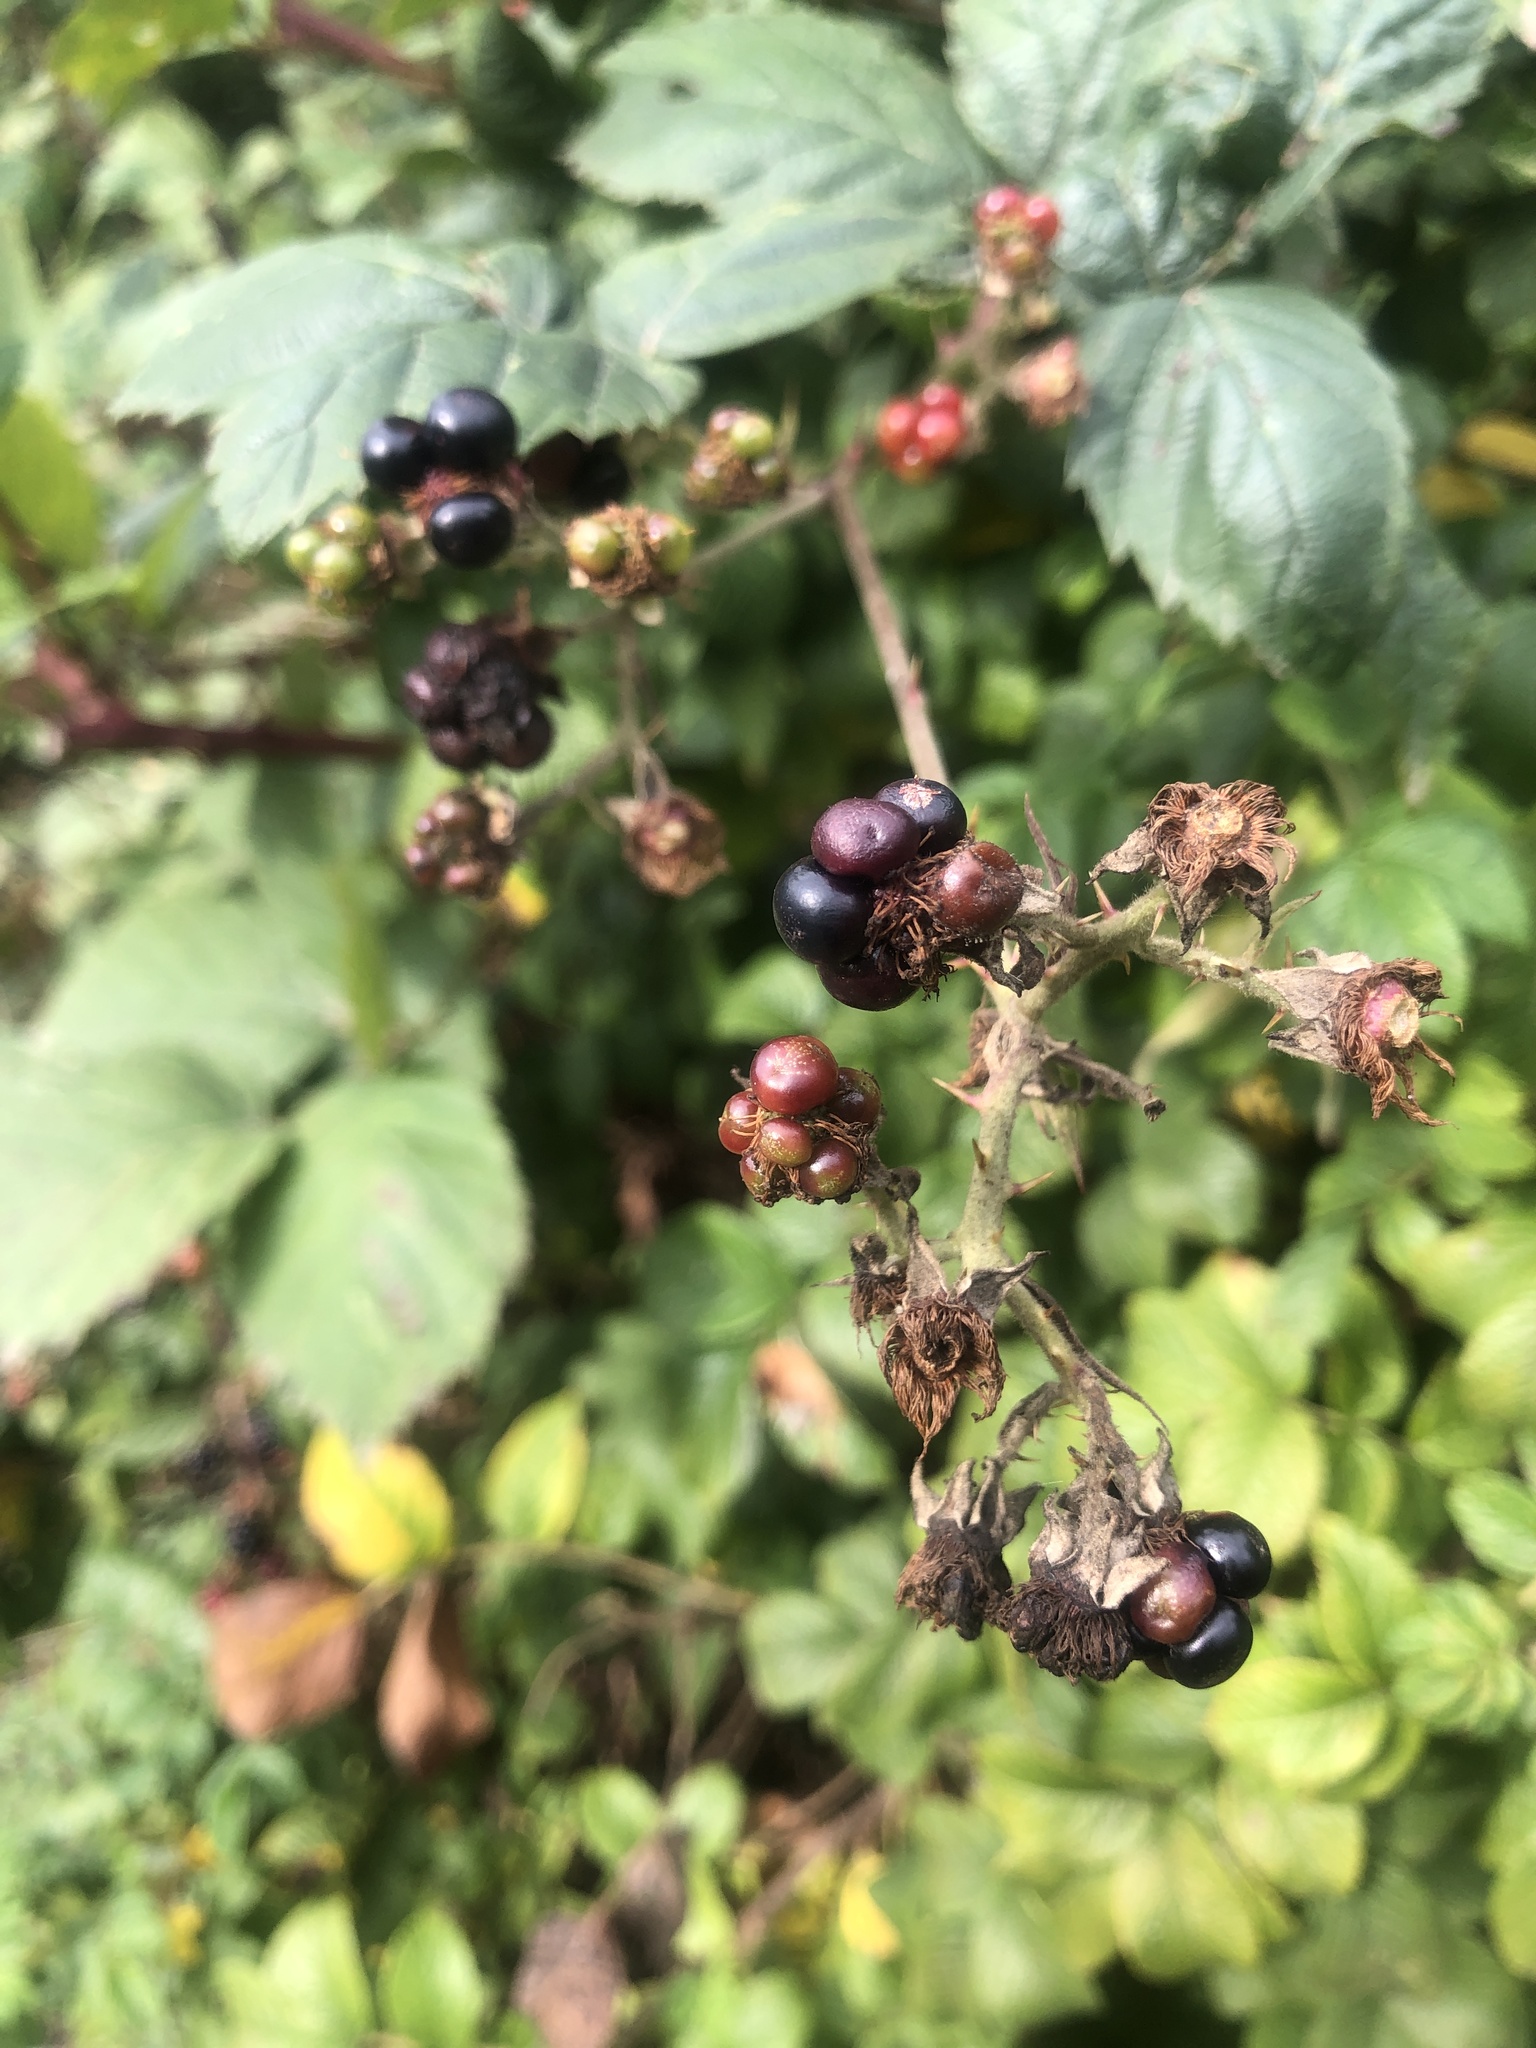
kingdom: Plantae
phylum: Tracheophyta
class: Magnoliopsida
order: Rosales
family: Rosaceae
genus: Rubus
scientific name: Rubus armeniacus
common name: Himalayan blackberry
